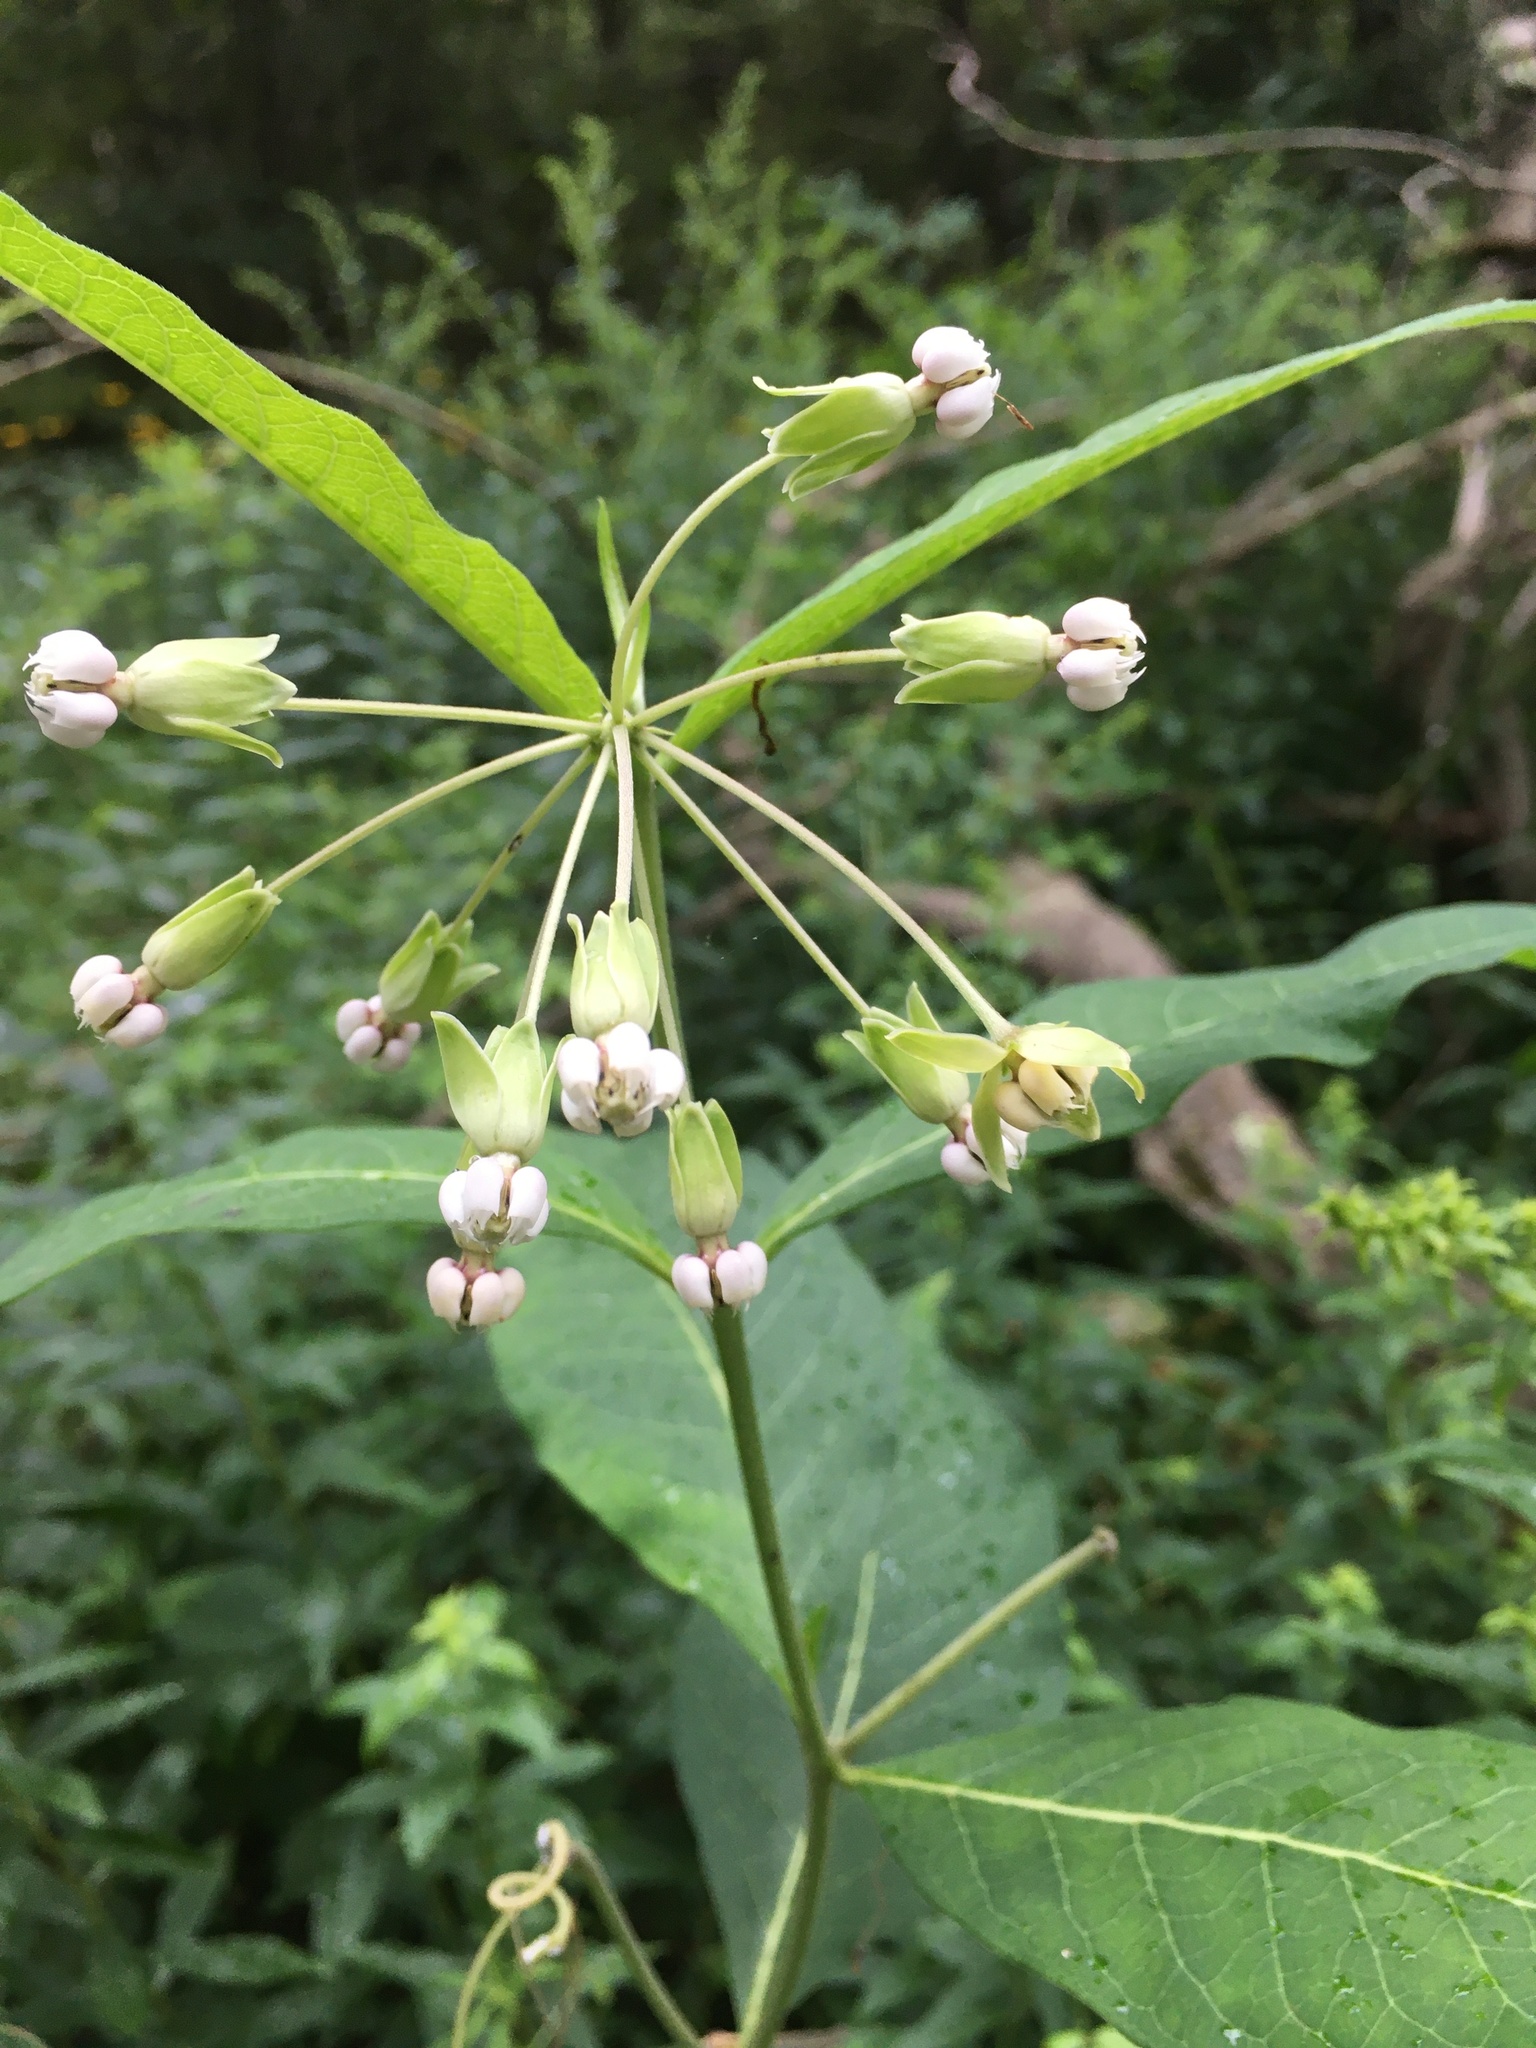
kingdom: Plantae
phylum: Tracheophyta
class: Magnoliopsida
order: Gentianales
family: Apocynaceae
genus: Asclepias
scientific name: Asclepias exaltata
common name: Poke milkweed
